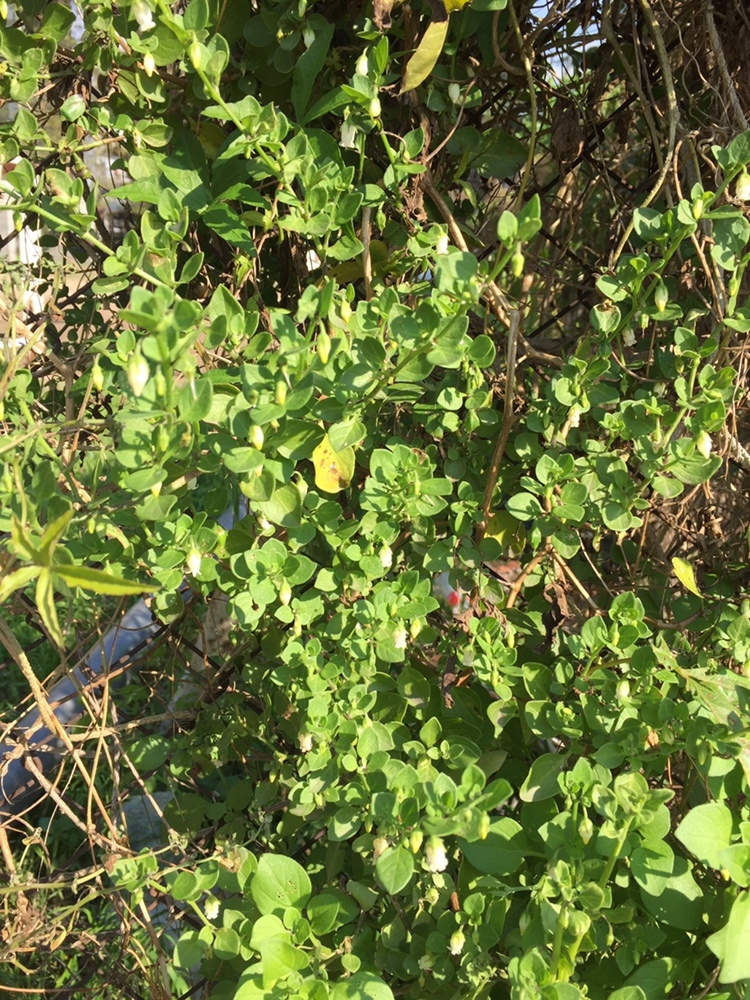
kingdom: Plantae
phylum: Tracheophyta
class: Magnoliopsida
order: Solanales
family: Solanaceae
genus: Salpichroa
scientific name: Salpichroa origanifolia
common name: Lily-of-the-valley-vine
